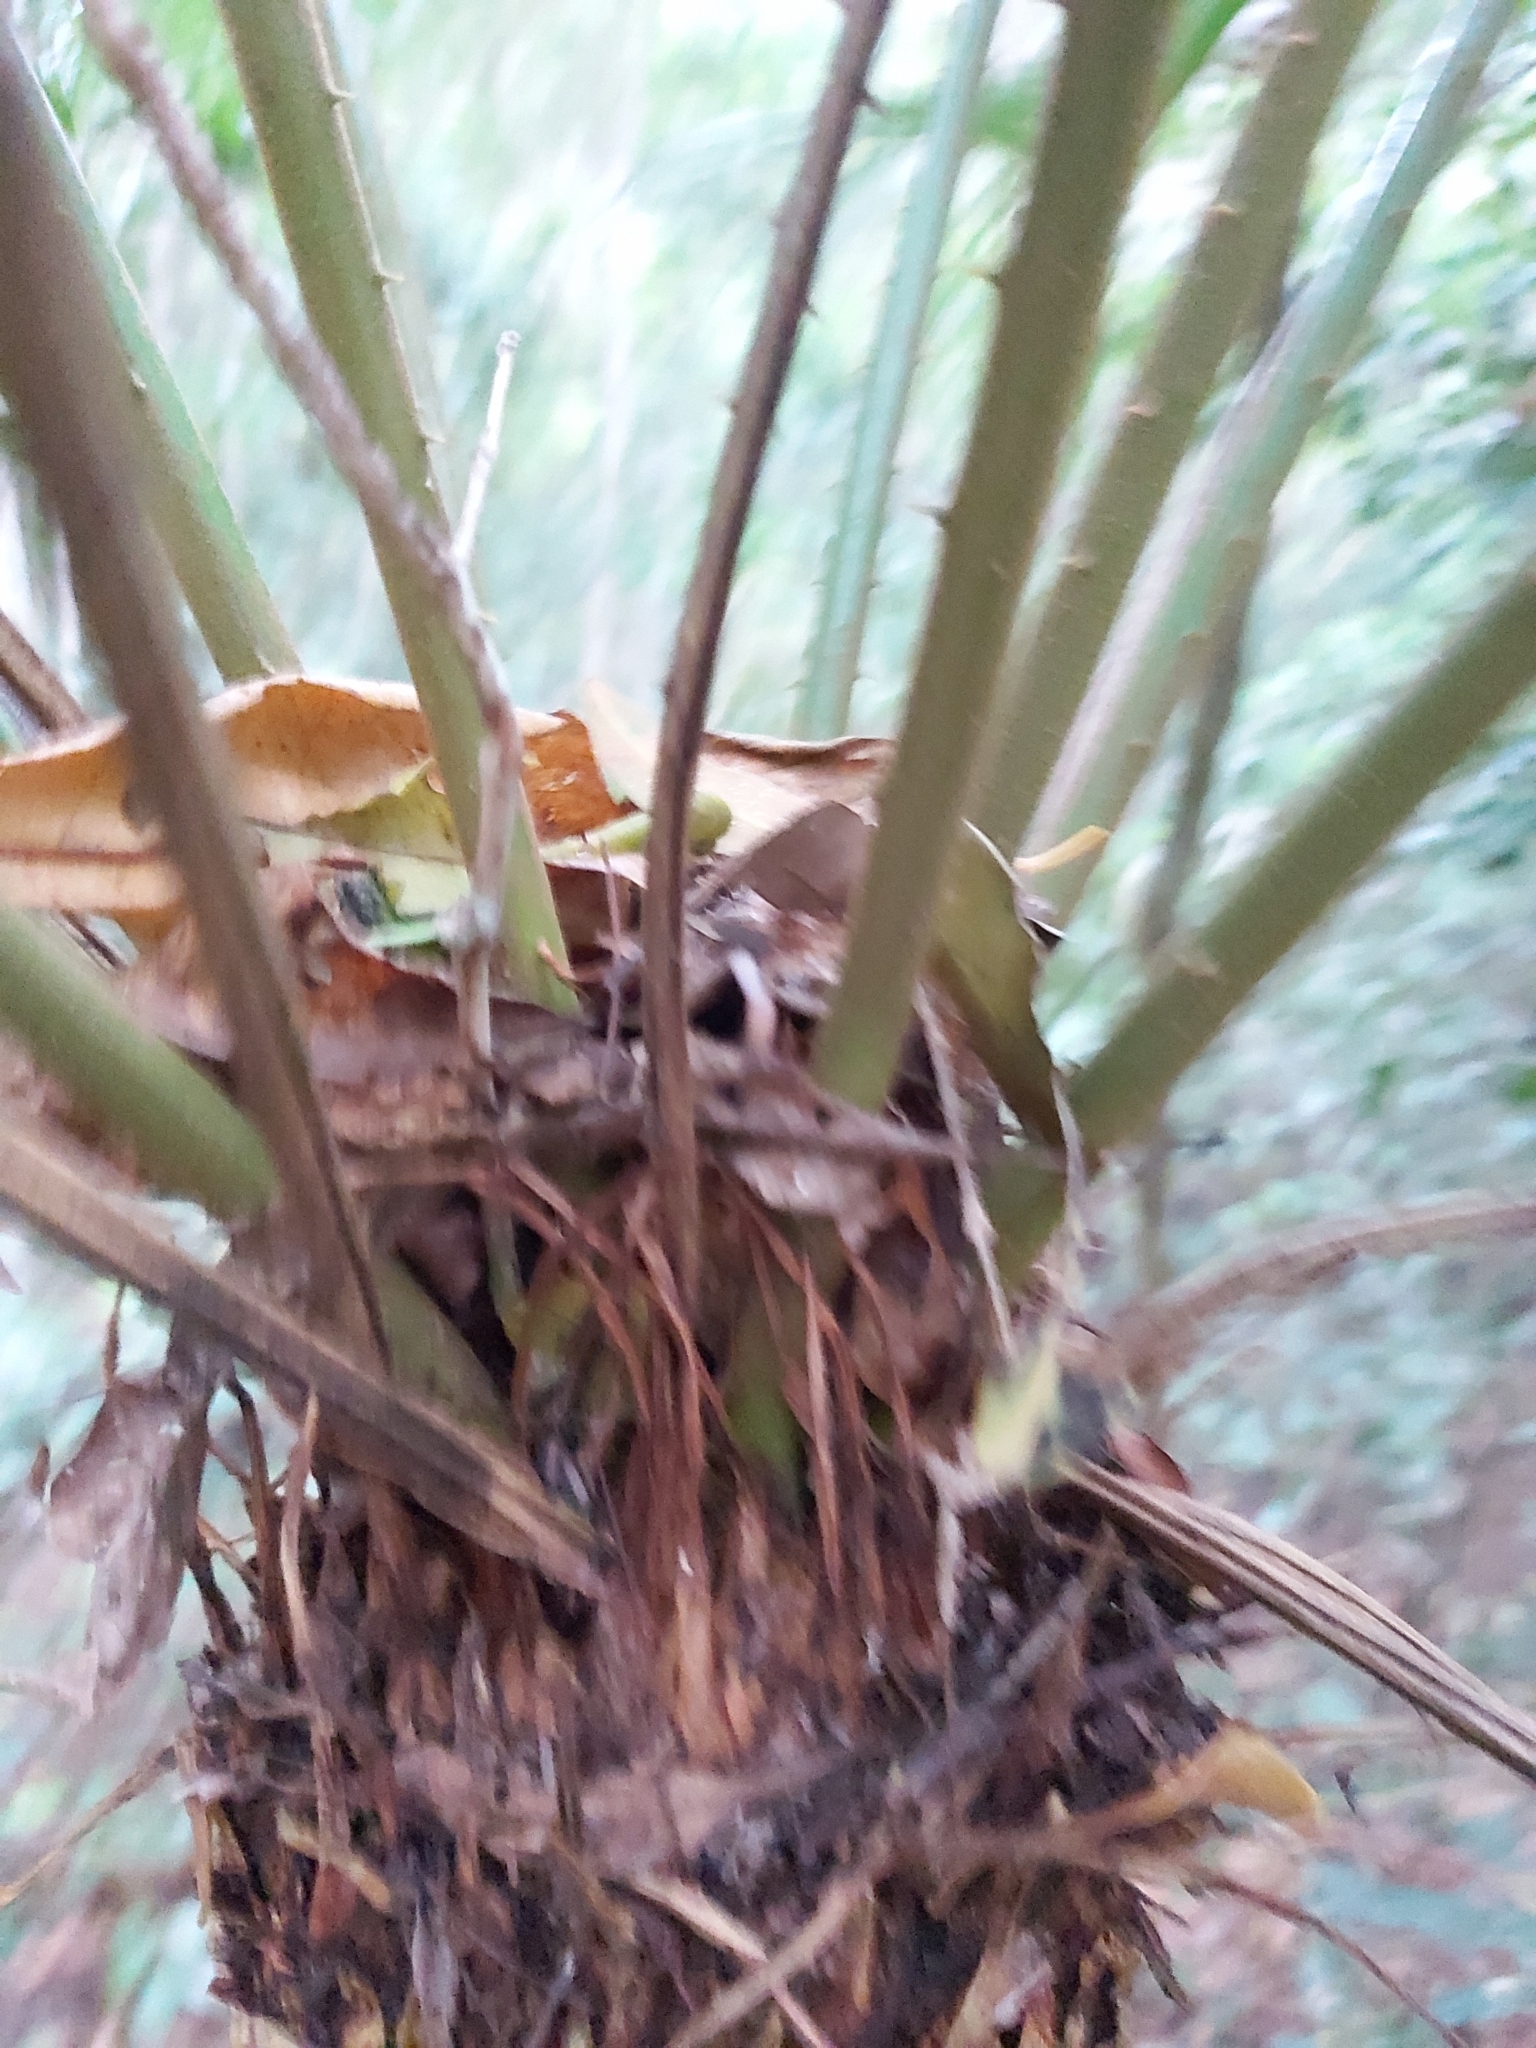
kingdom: Plantae
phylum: Tracheophyta
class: Cycadopsida
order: Cycadales
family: Cycadaceae
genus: Cycas
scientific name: Cycas media
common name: Queensland cycas
